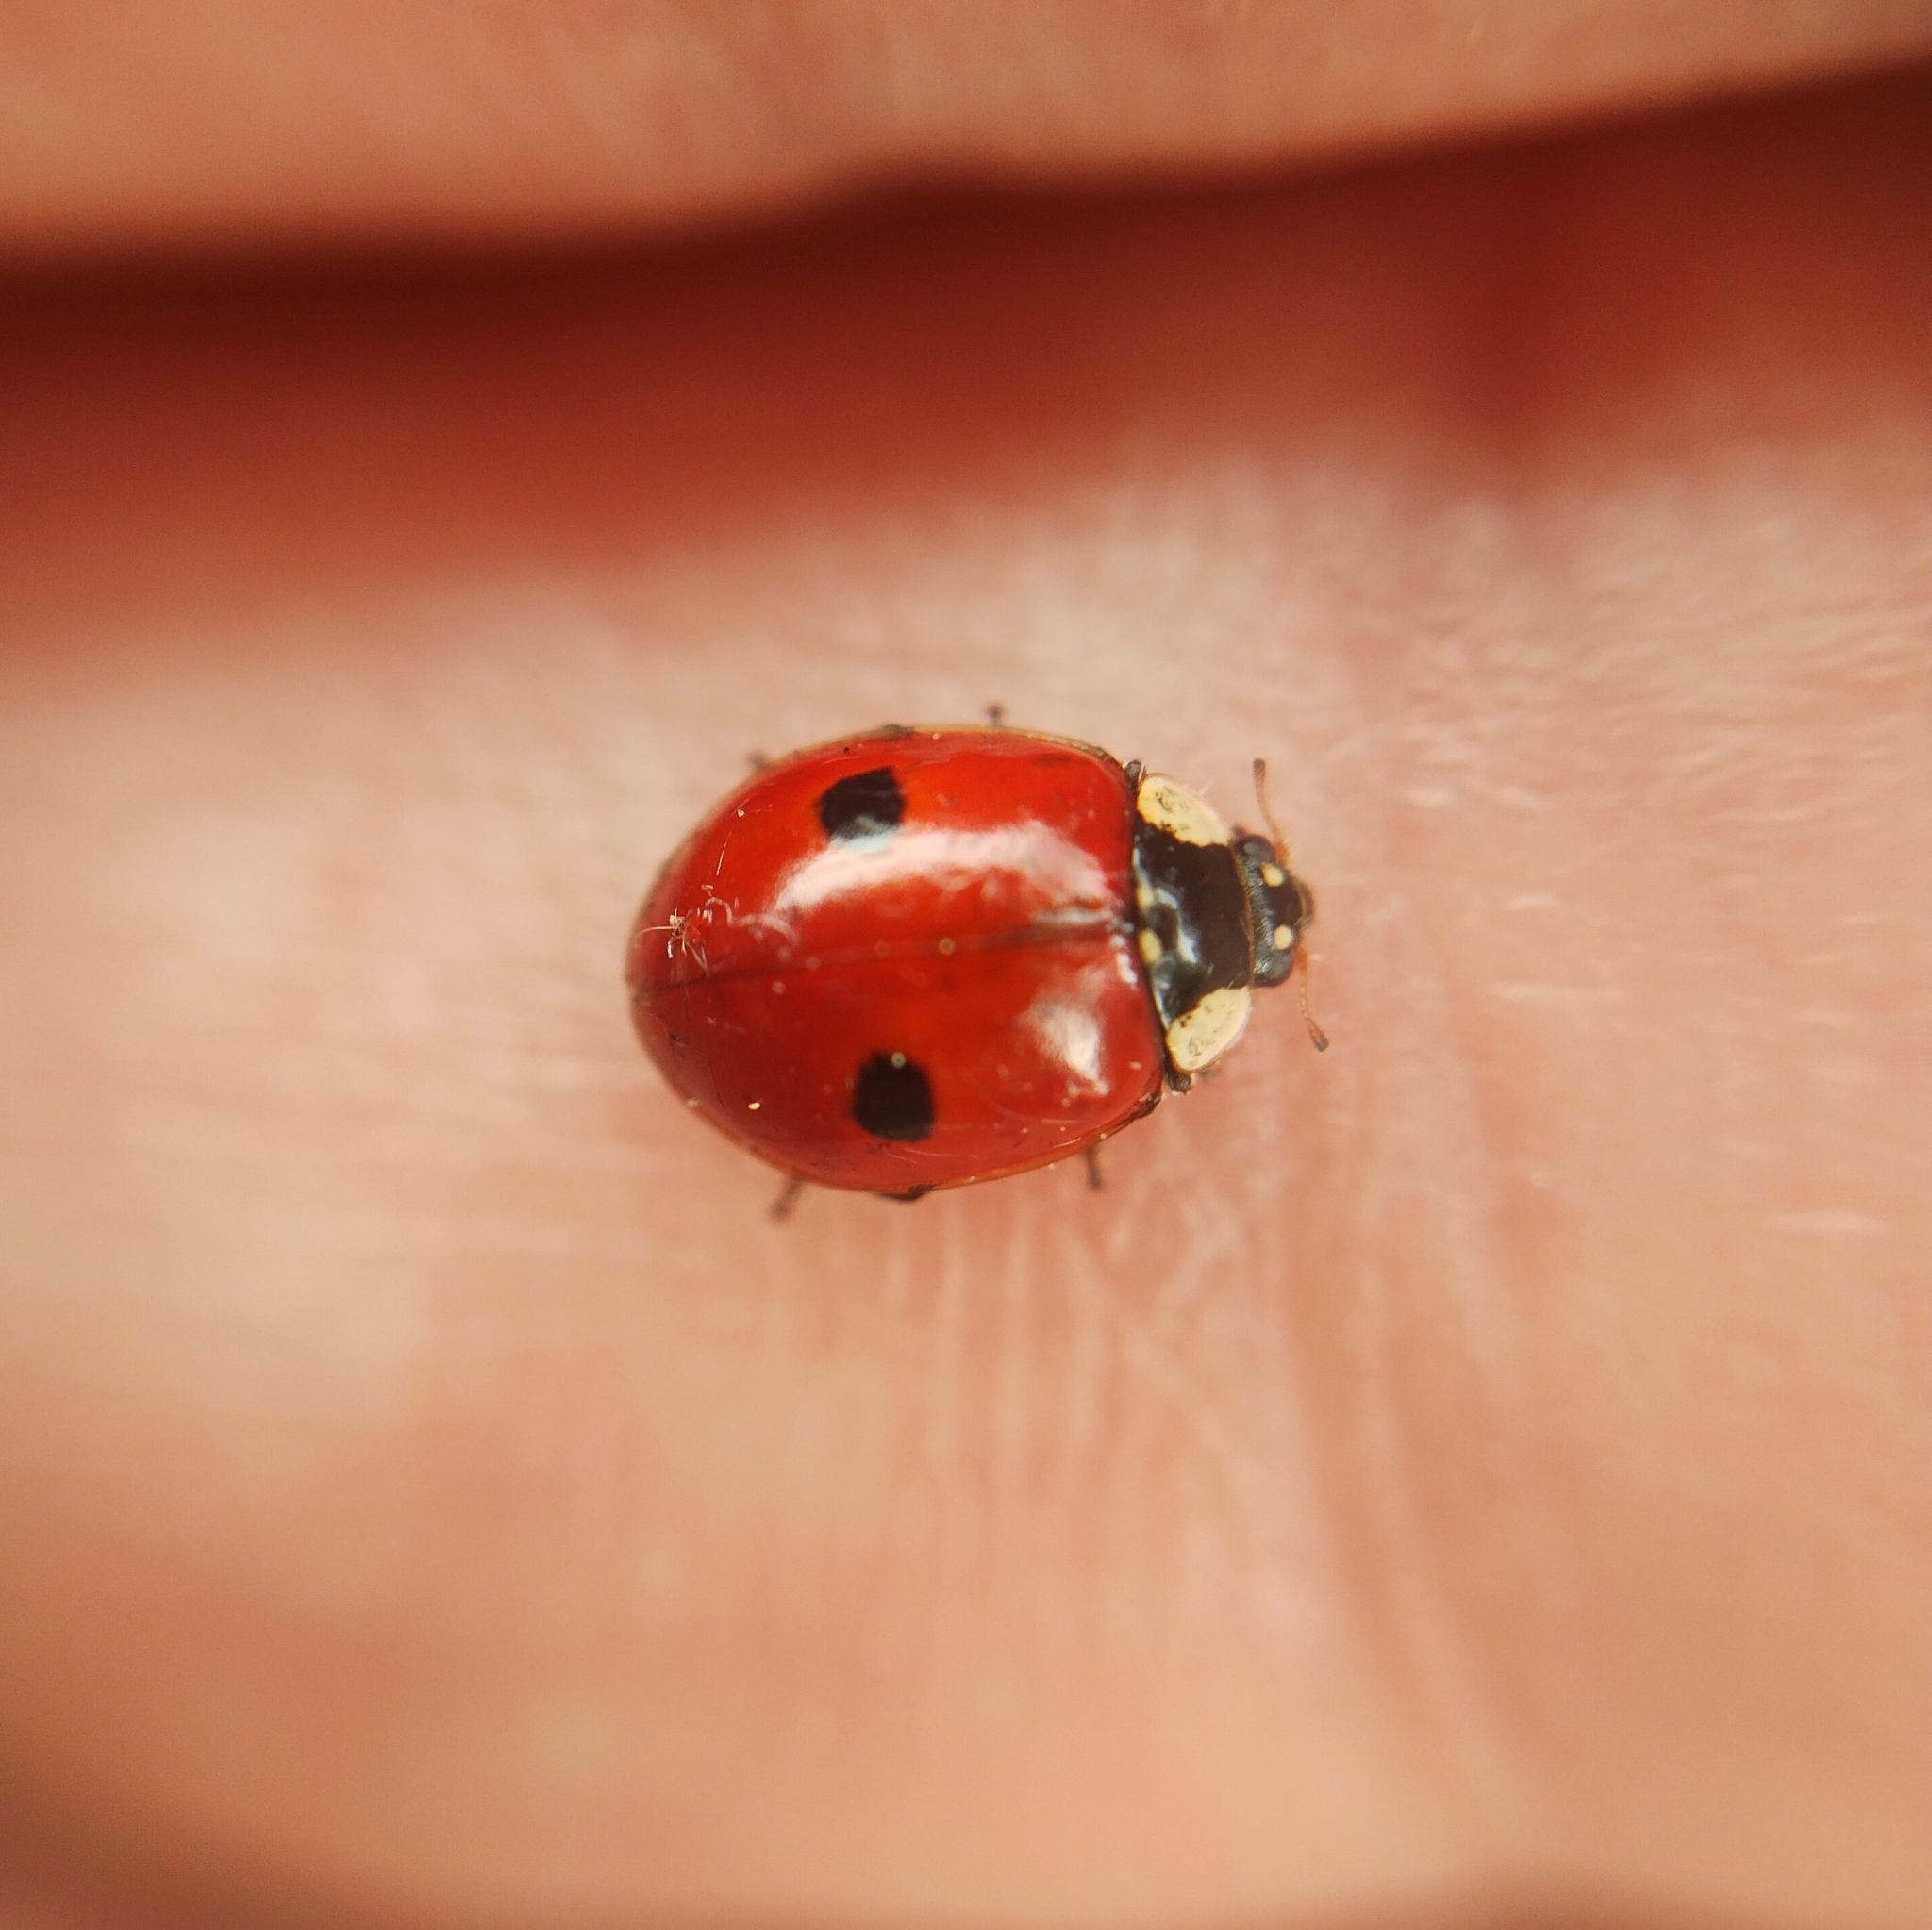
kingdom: Animalia
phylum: Arthropoda
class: Insecta
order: Coleoptera
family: Coccinellidae
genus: Adalia
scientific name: Adalia bipunctata
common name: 2-spot ladybird
